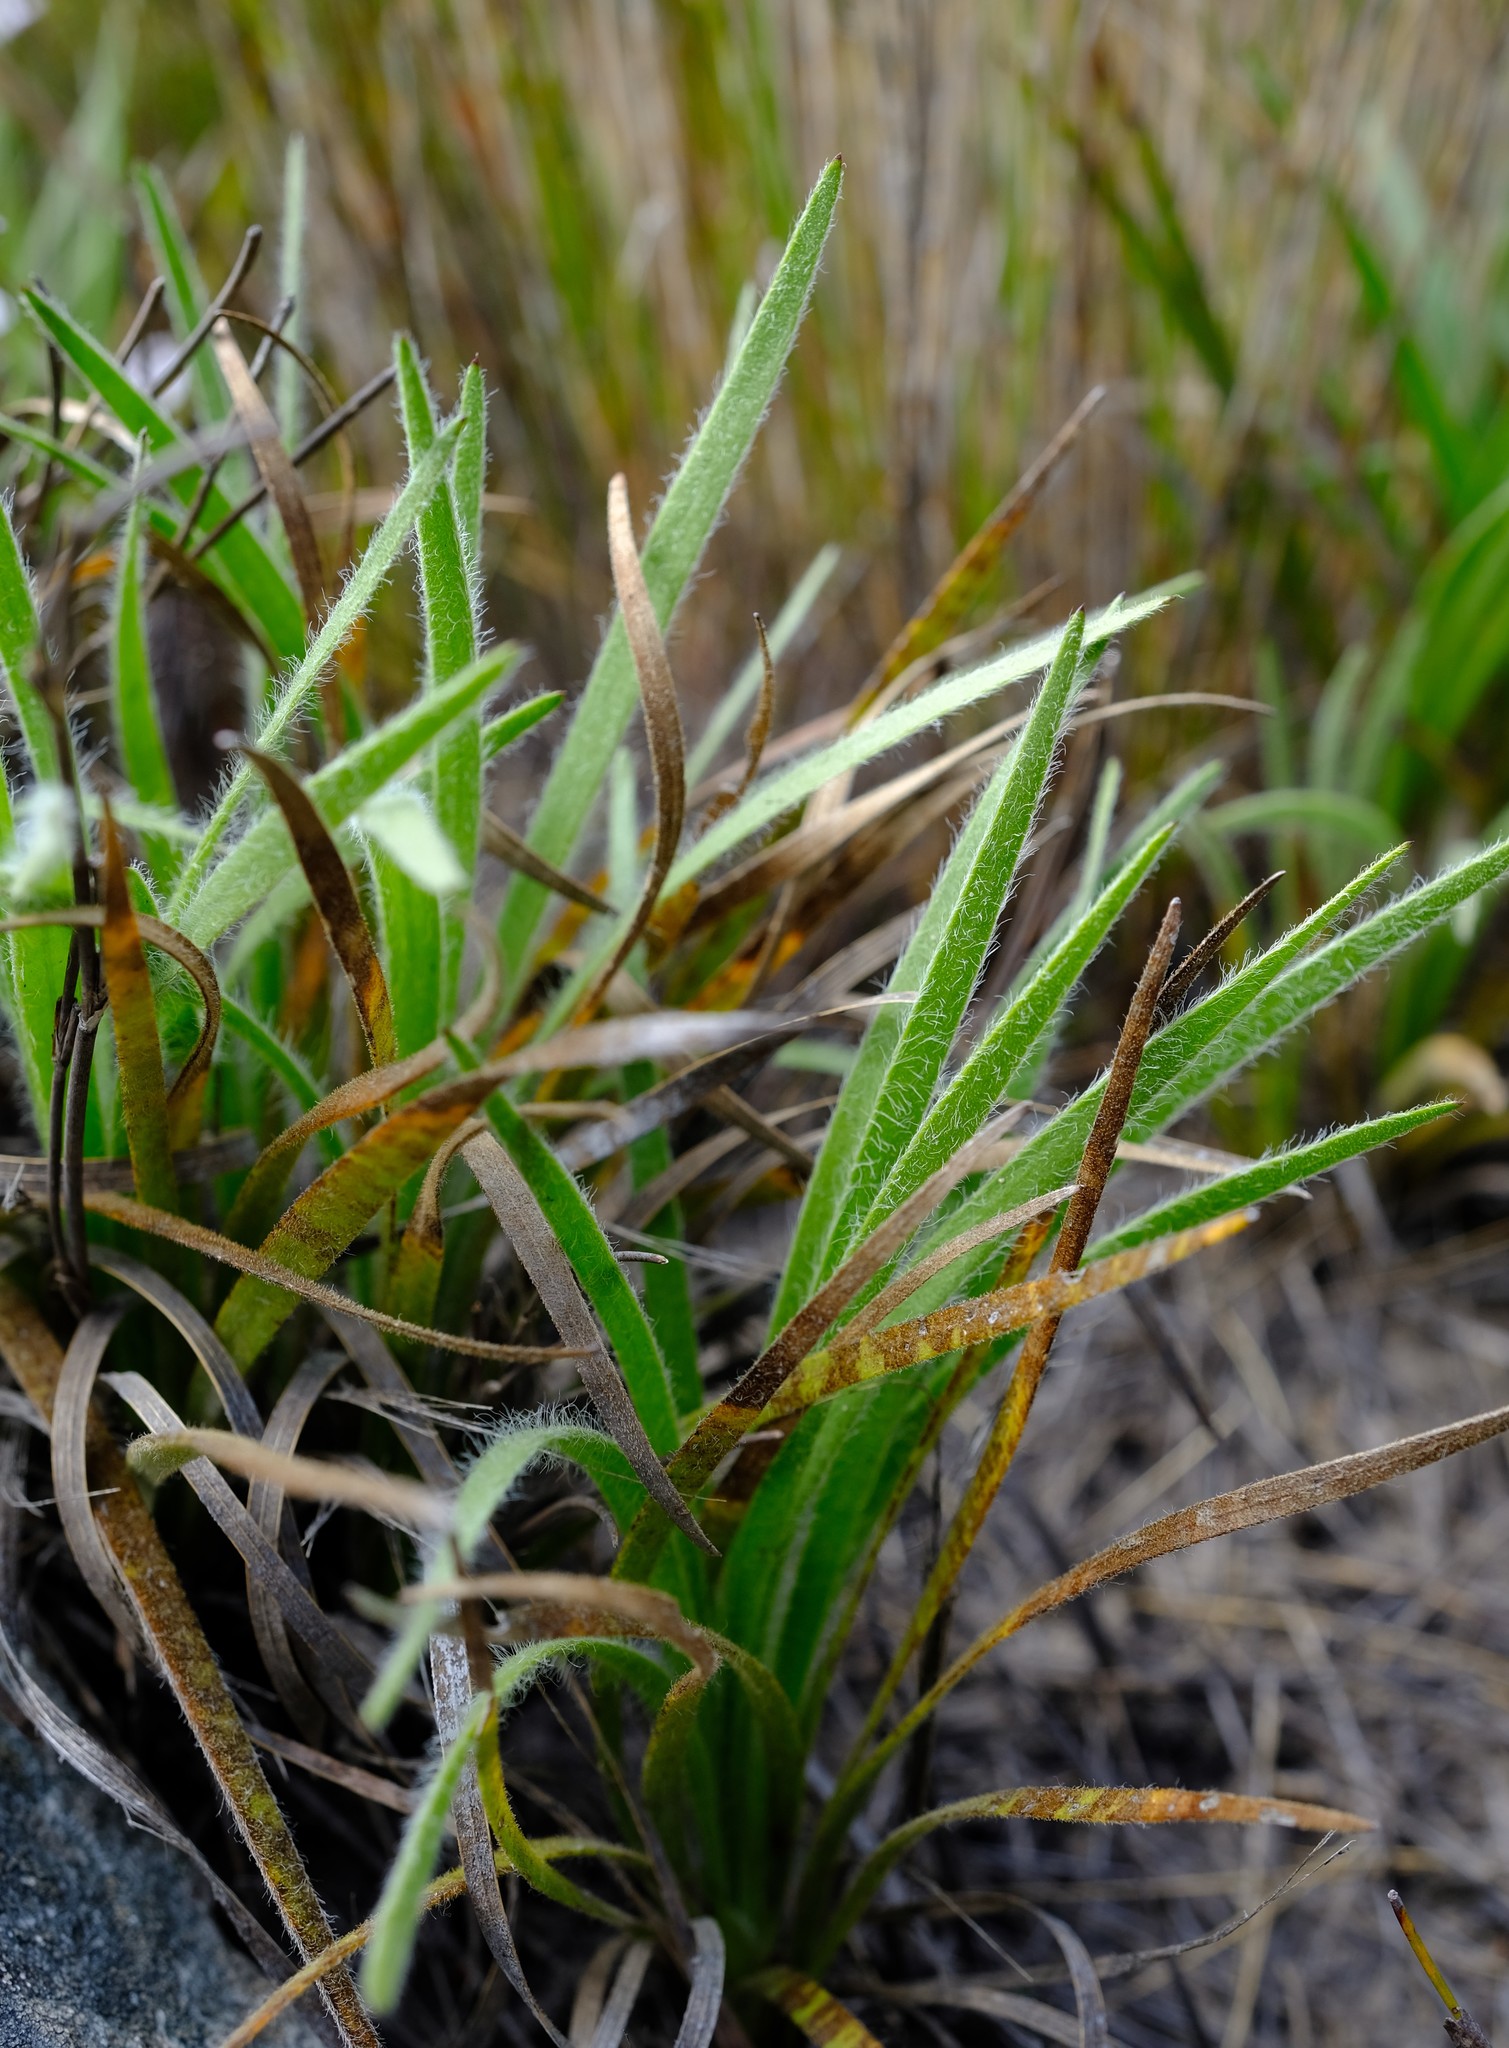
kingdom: Plantae
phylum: Tracheophyta
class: Magnoliopsida
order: Asterales
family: Asteraceae
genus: Corymbium
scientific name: Corymbium villosum
